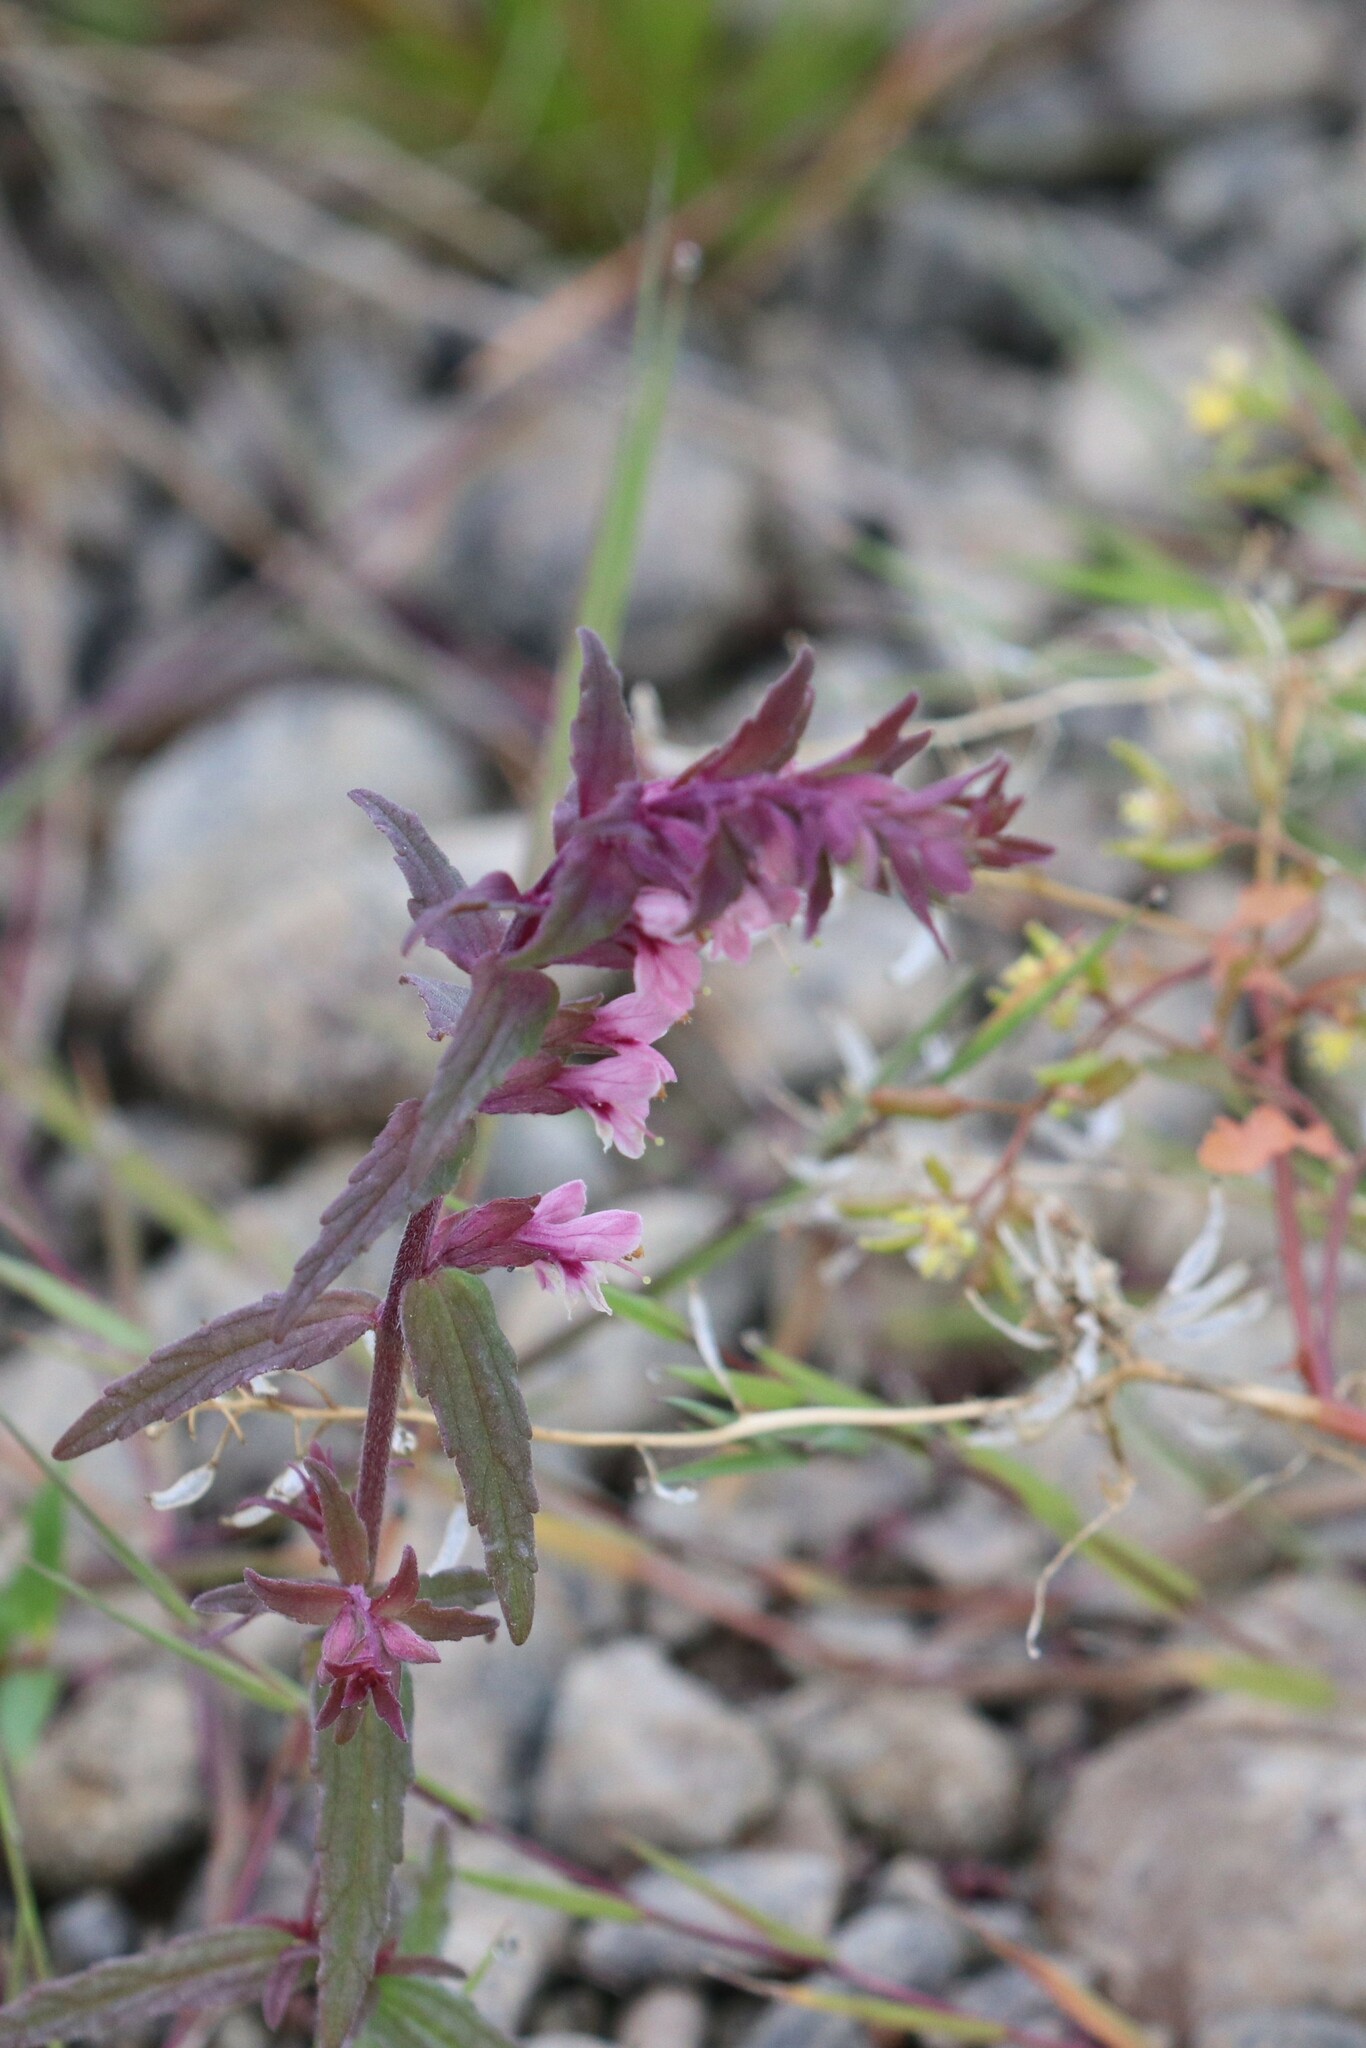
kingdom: Plantae
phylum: Tracheophyta
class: Magnoliopsida
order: Lamiales
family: Orobanchaceae
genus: Odontites
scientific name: Odontites vulgaris
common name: Broomrape
